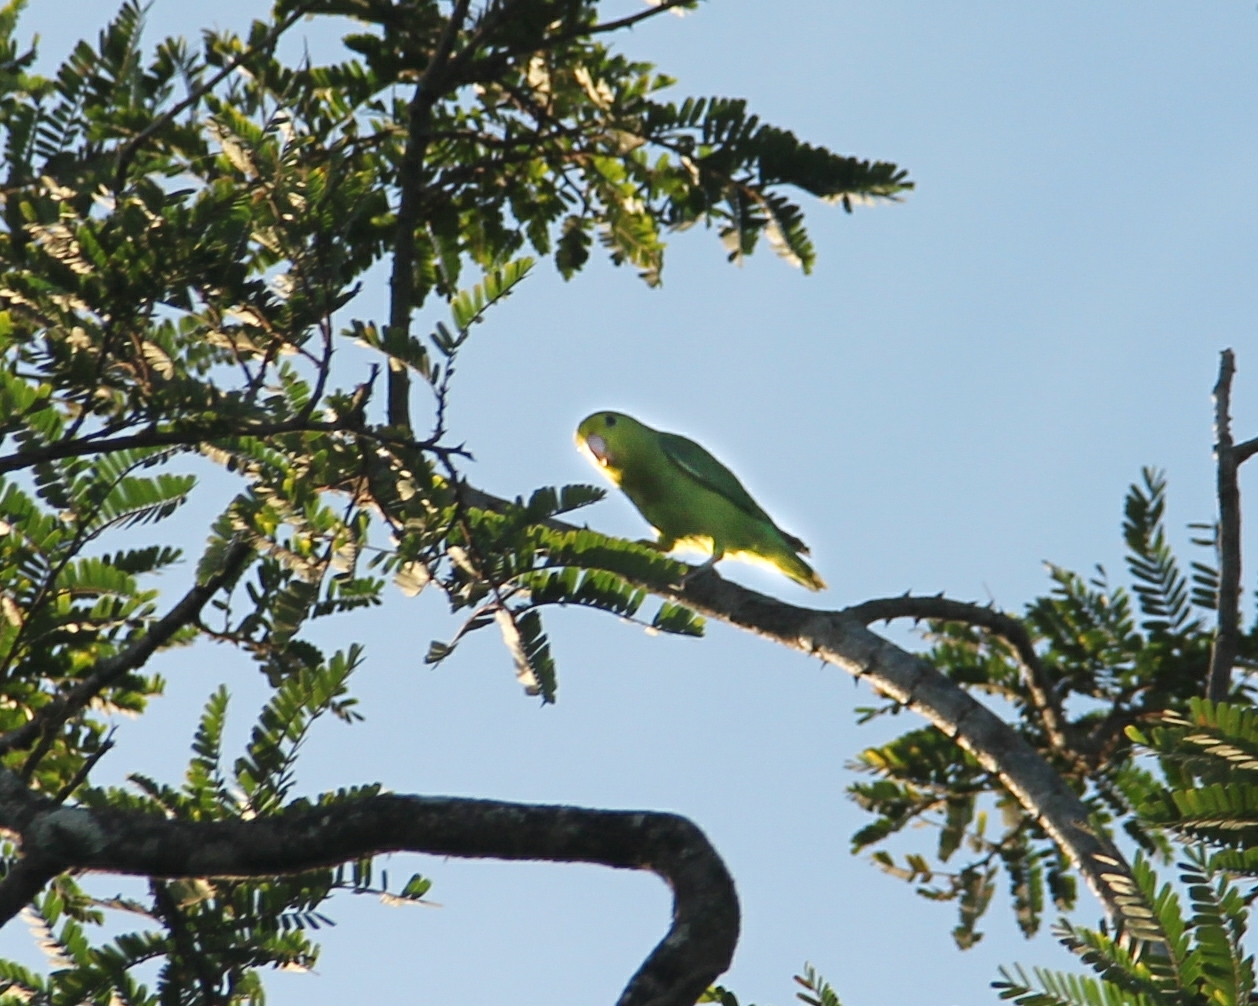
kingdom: Animalia
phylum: Chordata
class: Aves
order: Psittaciformes
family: Psittacidae
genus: Forpus
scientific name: Forpus xanthopterygius
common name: Blue-winged parrotlet
